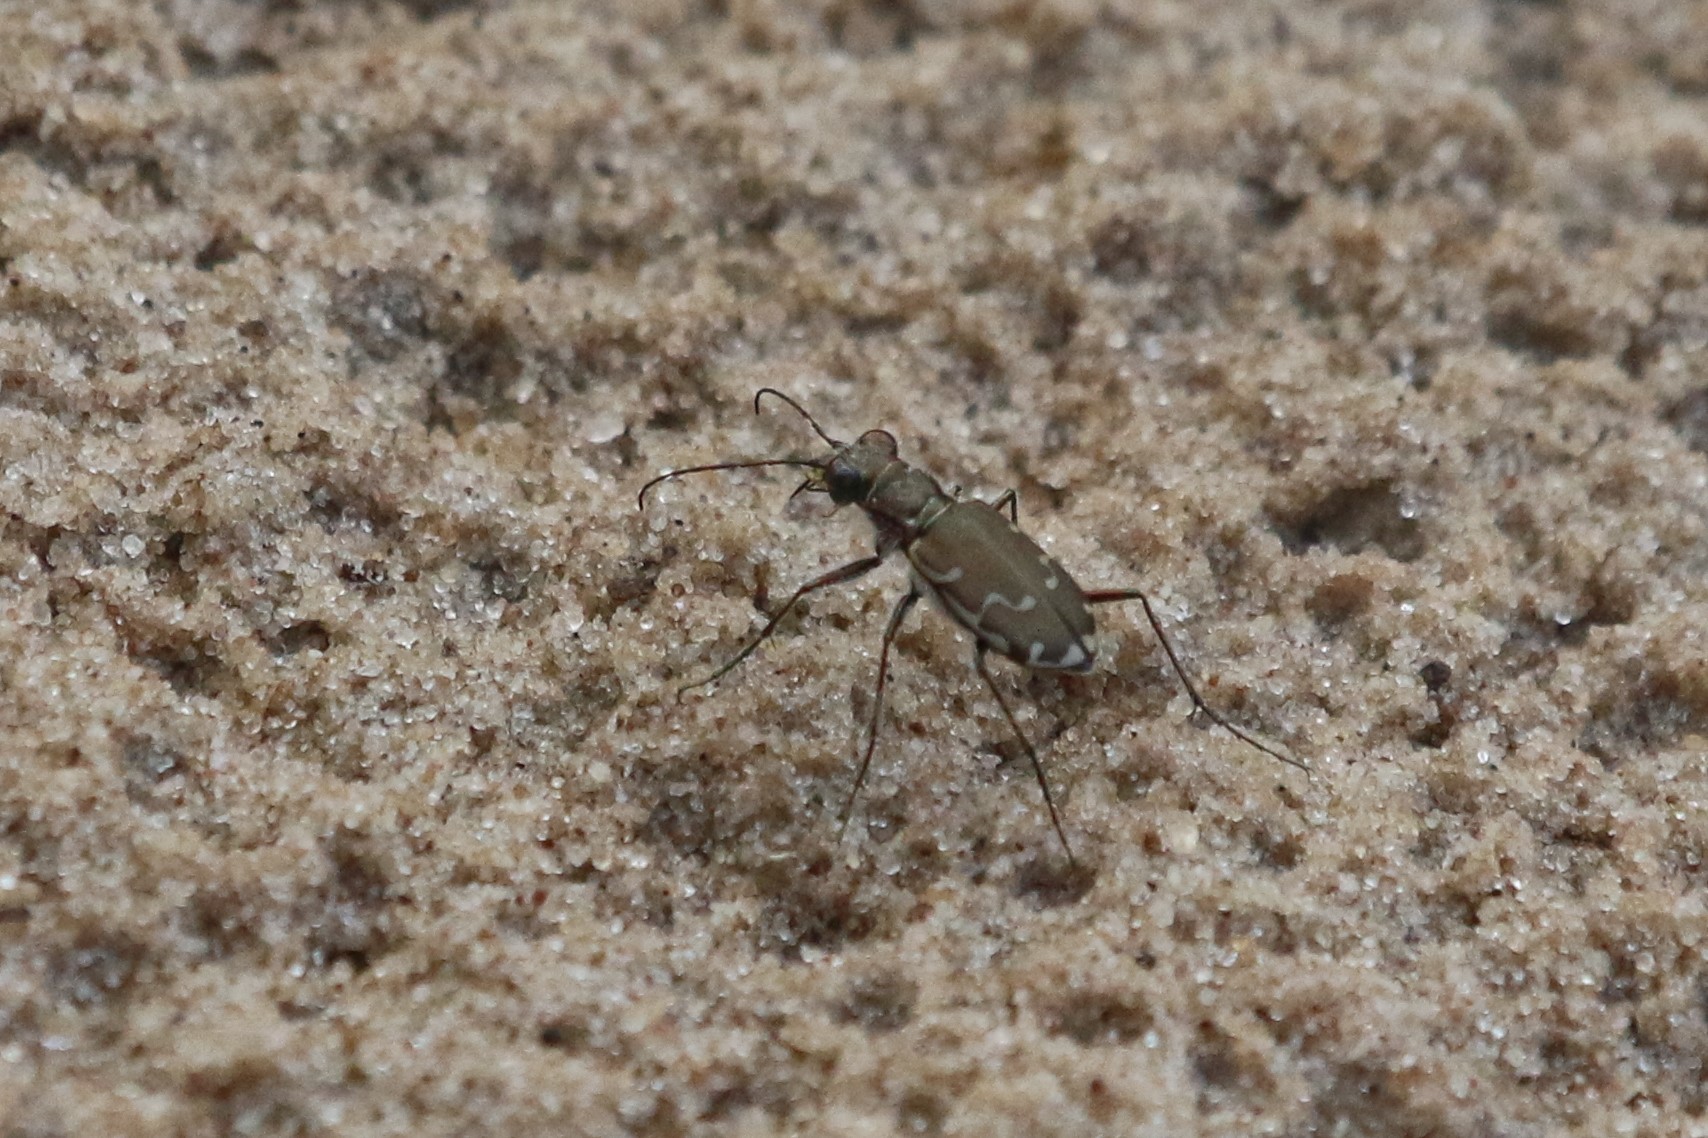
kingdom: Animalia
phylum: Arthropoda
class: Insecta
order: Coleoptera
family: Carabidae
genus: Cicindela
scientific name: Cicindela repanda
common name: Bronzed tiger beetle
